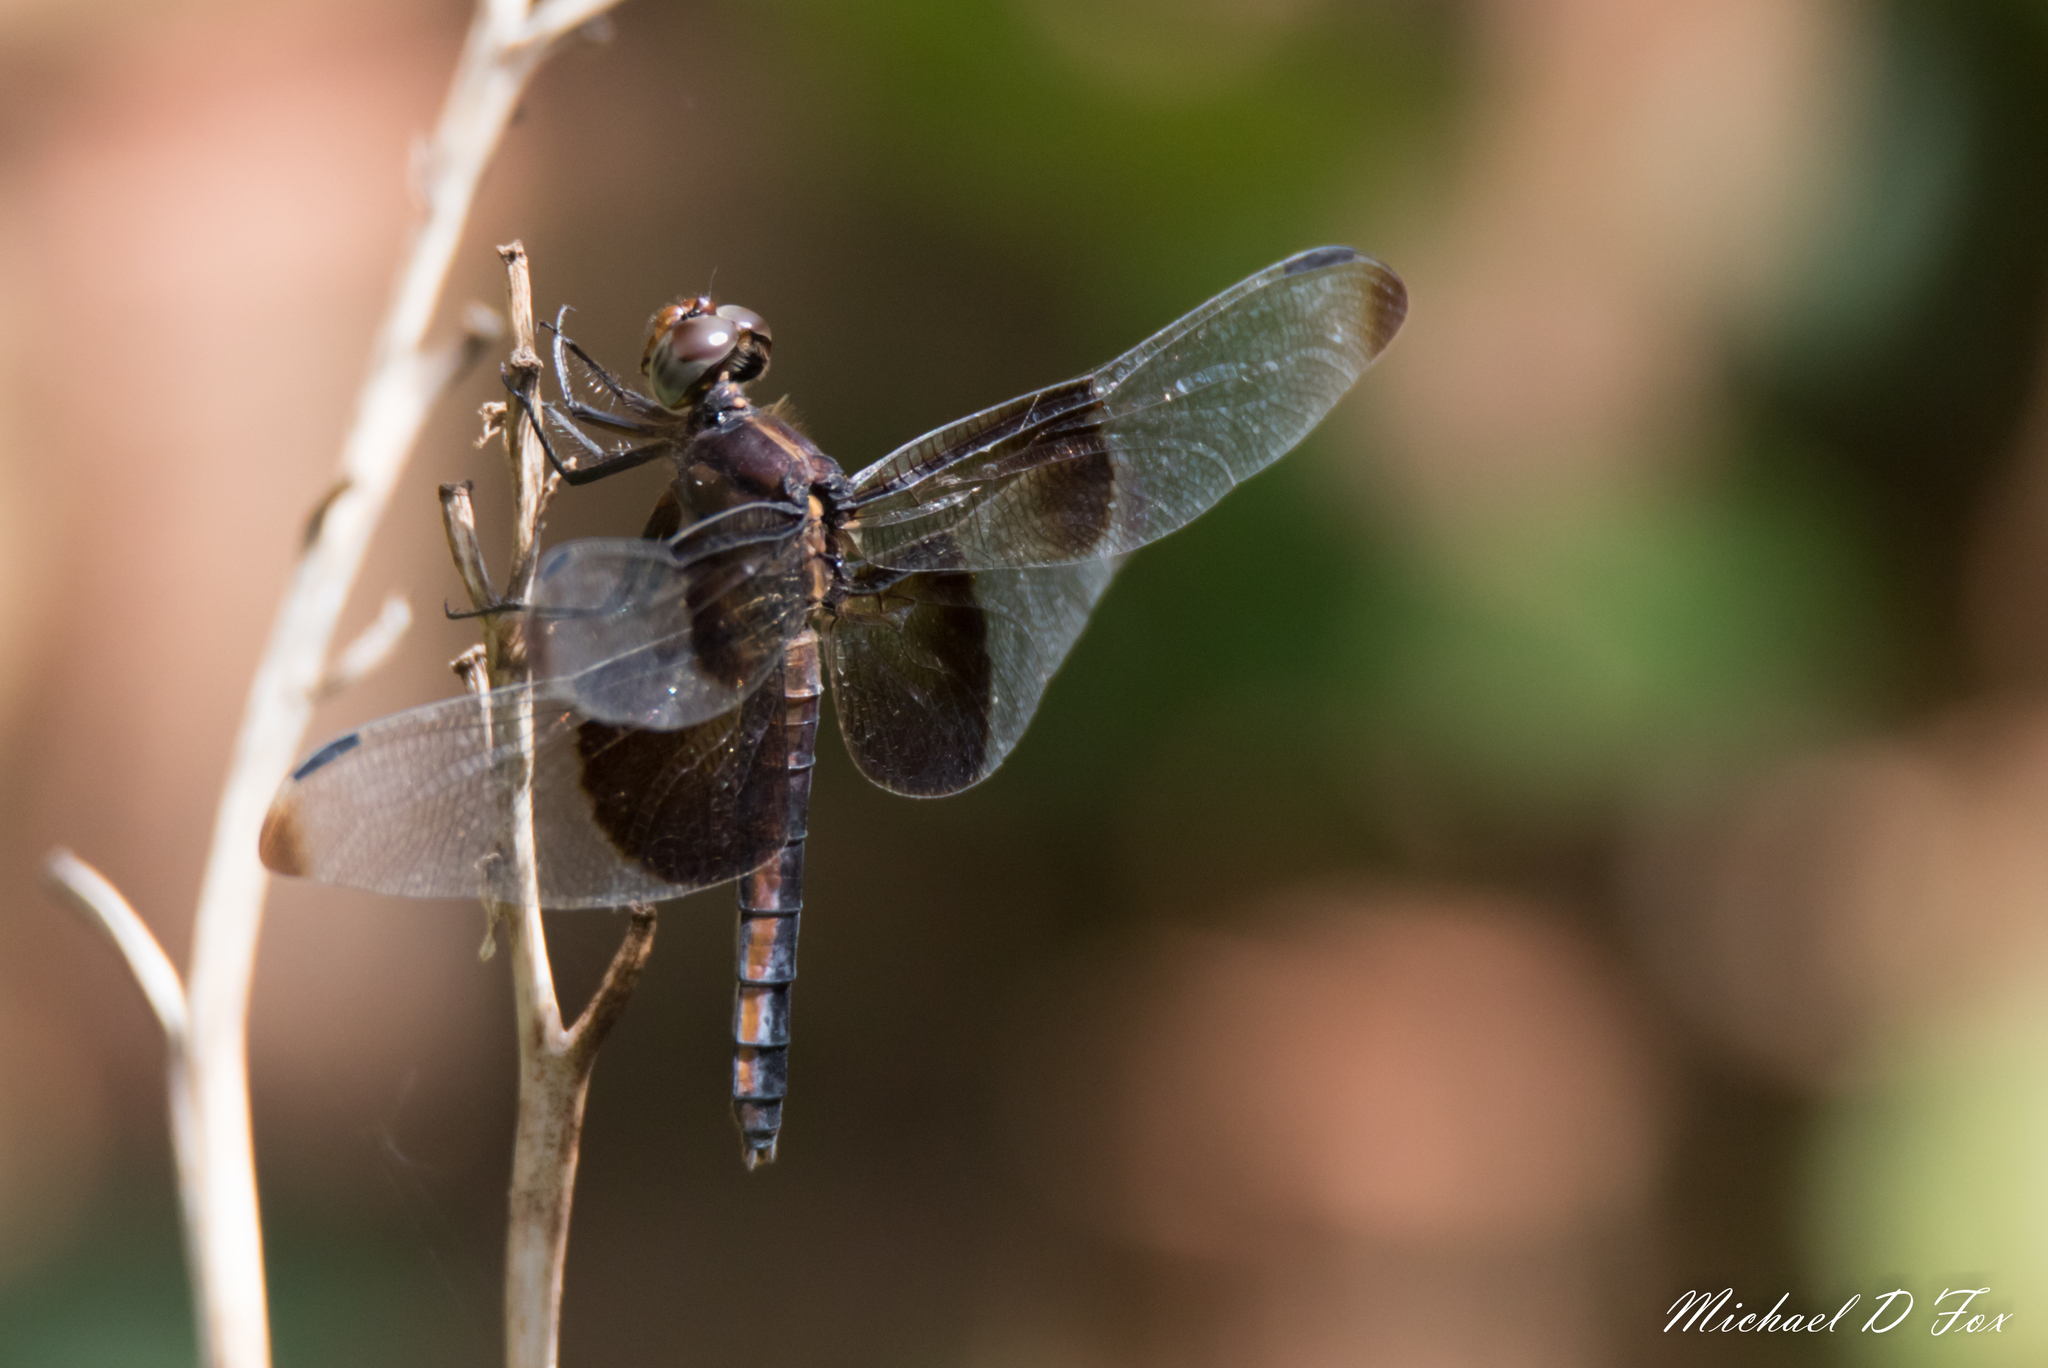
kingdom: Animalia
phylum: Arthropoda
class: Insecta
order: Odonata
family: Libellulidae
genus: Libellula
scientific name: Libellula luctuosa
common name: Widow skimmer
